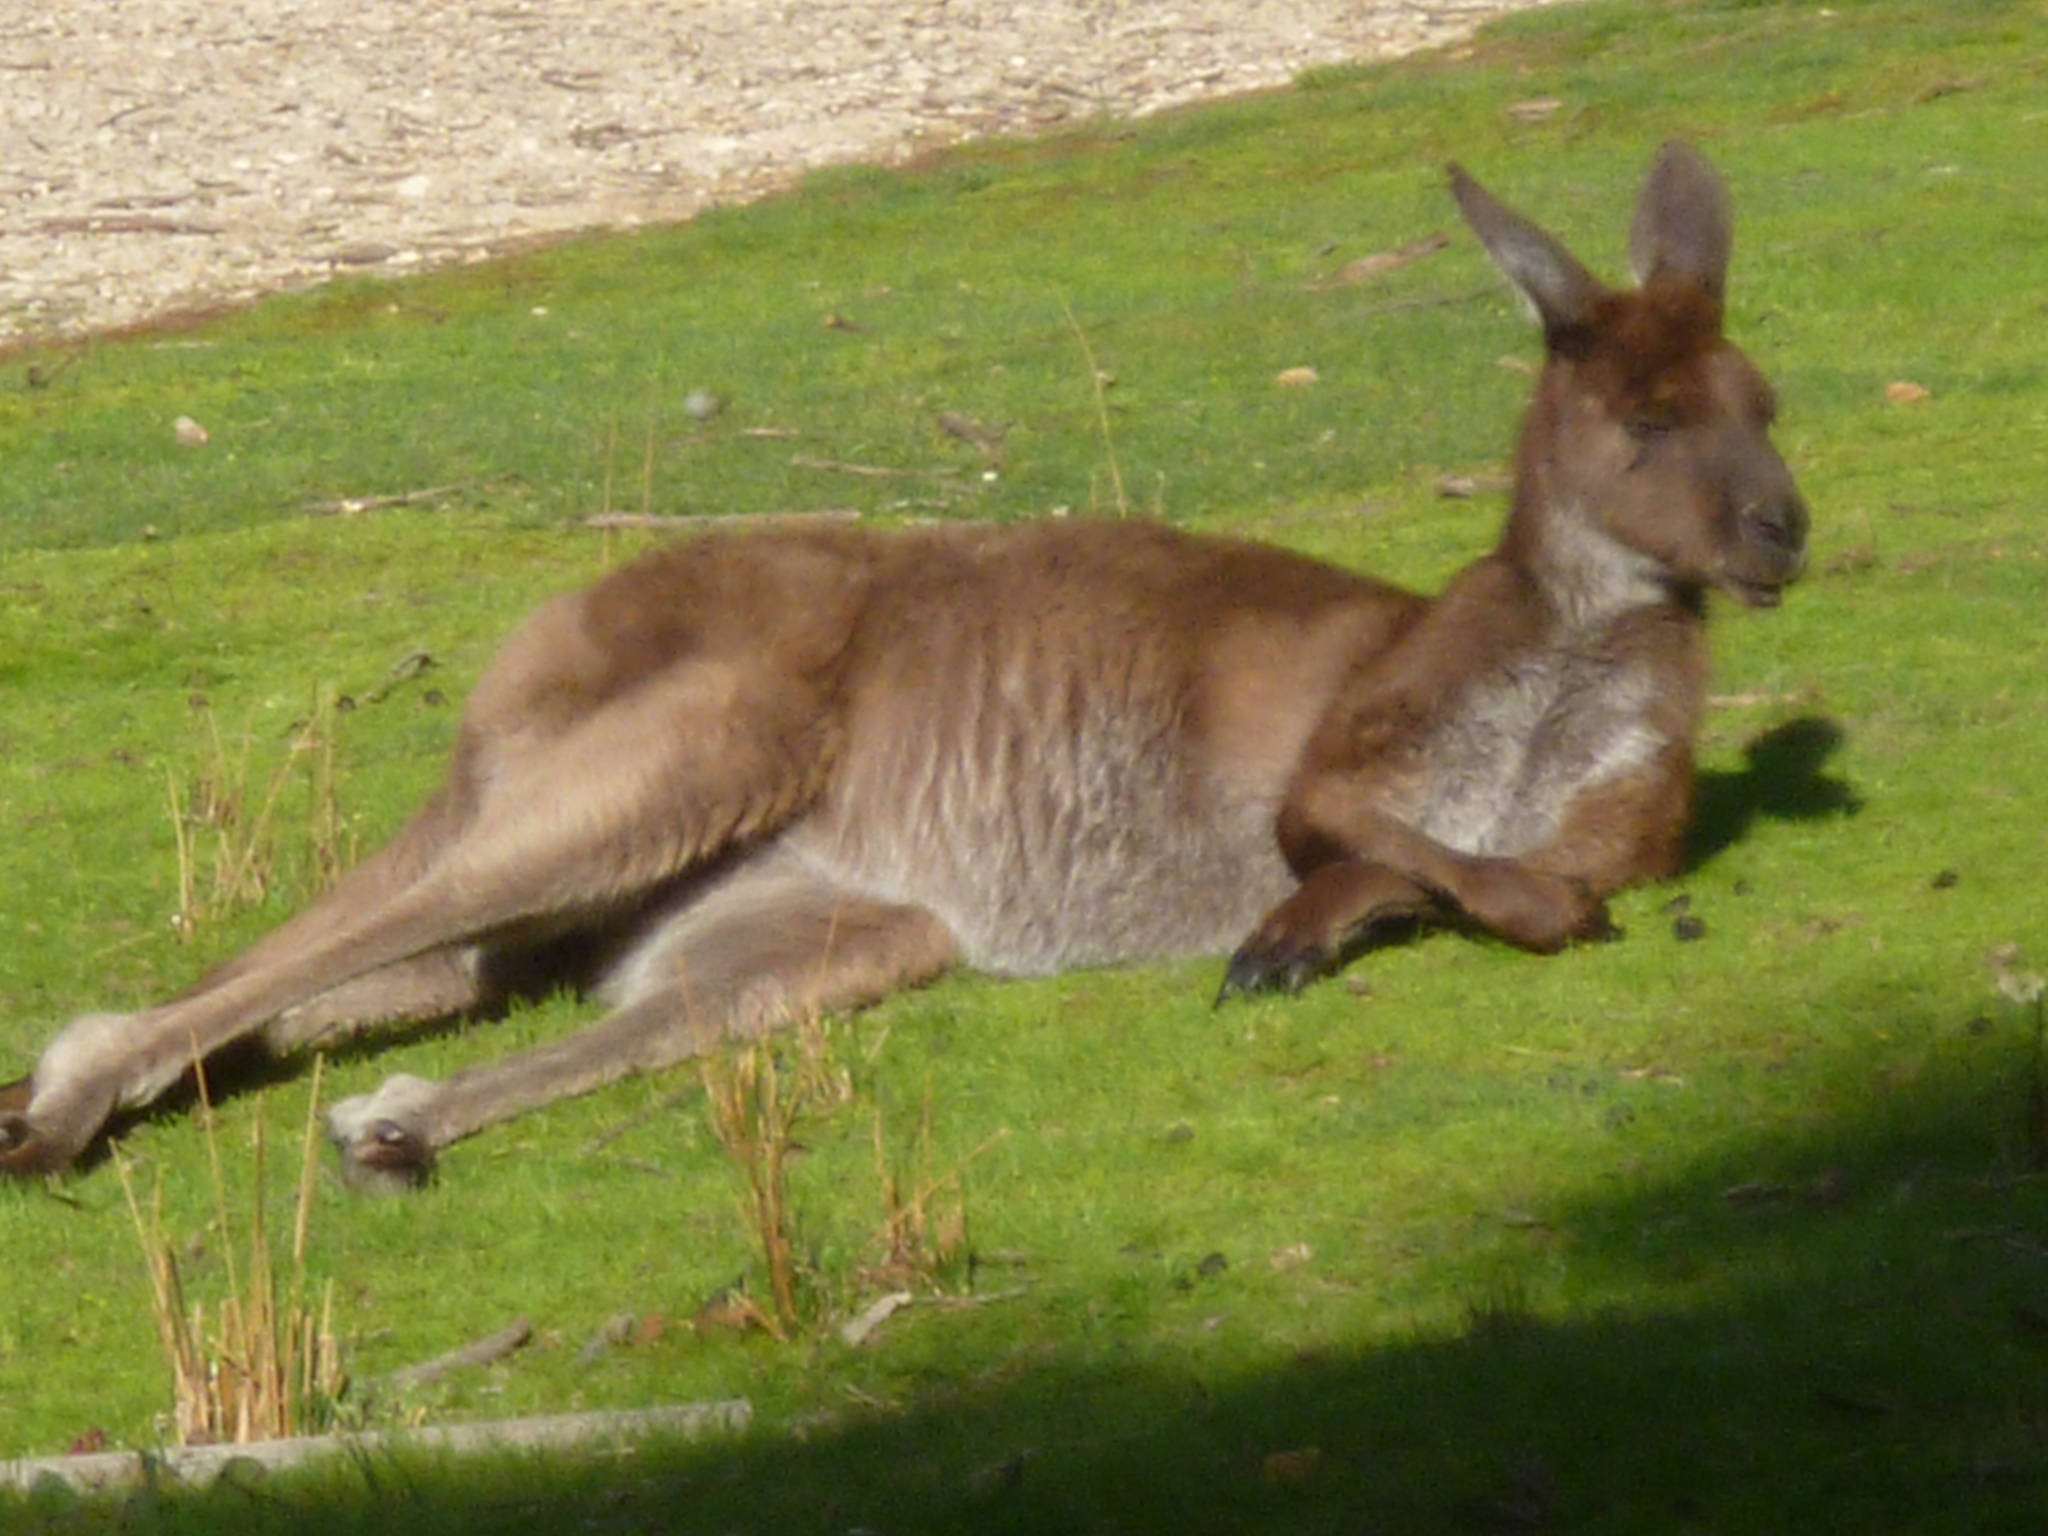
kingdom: Animalia
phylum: Chordata
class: Mammalia
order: Diprotodontia
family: Macropodidae
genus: Macropus
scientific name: Macropus fuliginosus
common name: Western grey kangaroo
